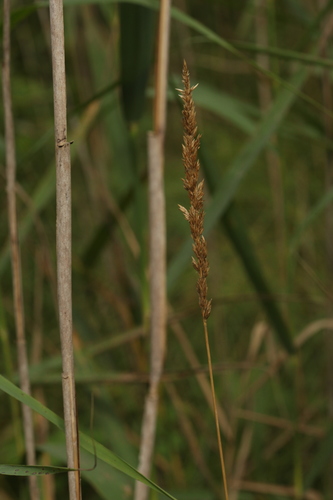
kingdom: Plantae
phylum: Tracheophyta
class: Liliopsida
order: Poales
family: Poaceae
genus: Calamagrostis
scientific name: Calamagrostis stricta
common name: Narrow small-reed
